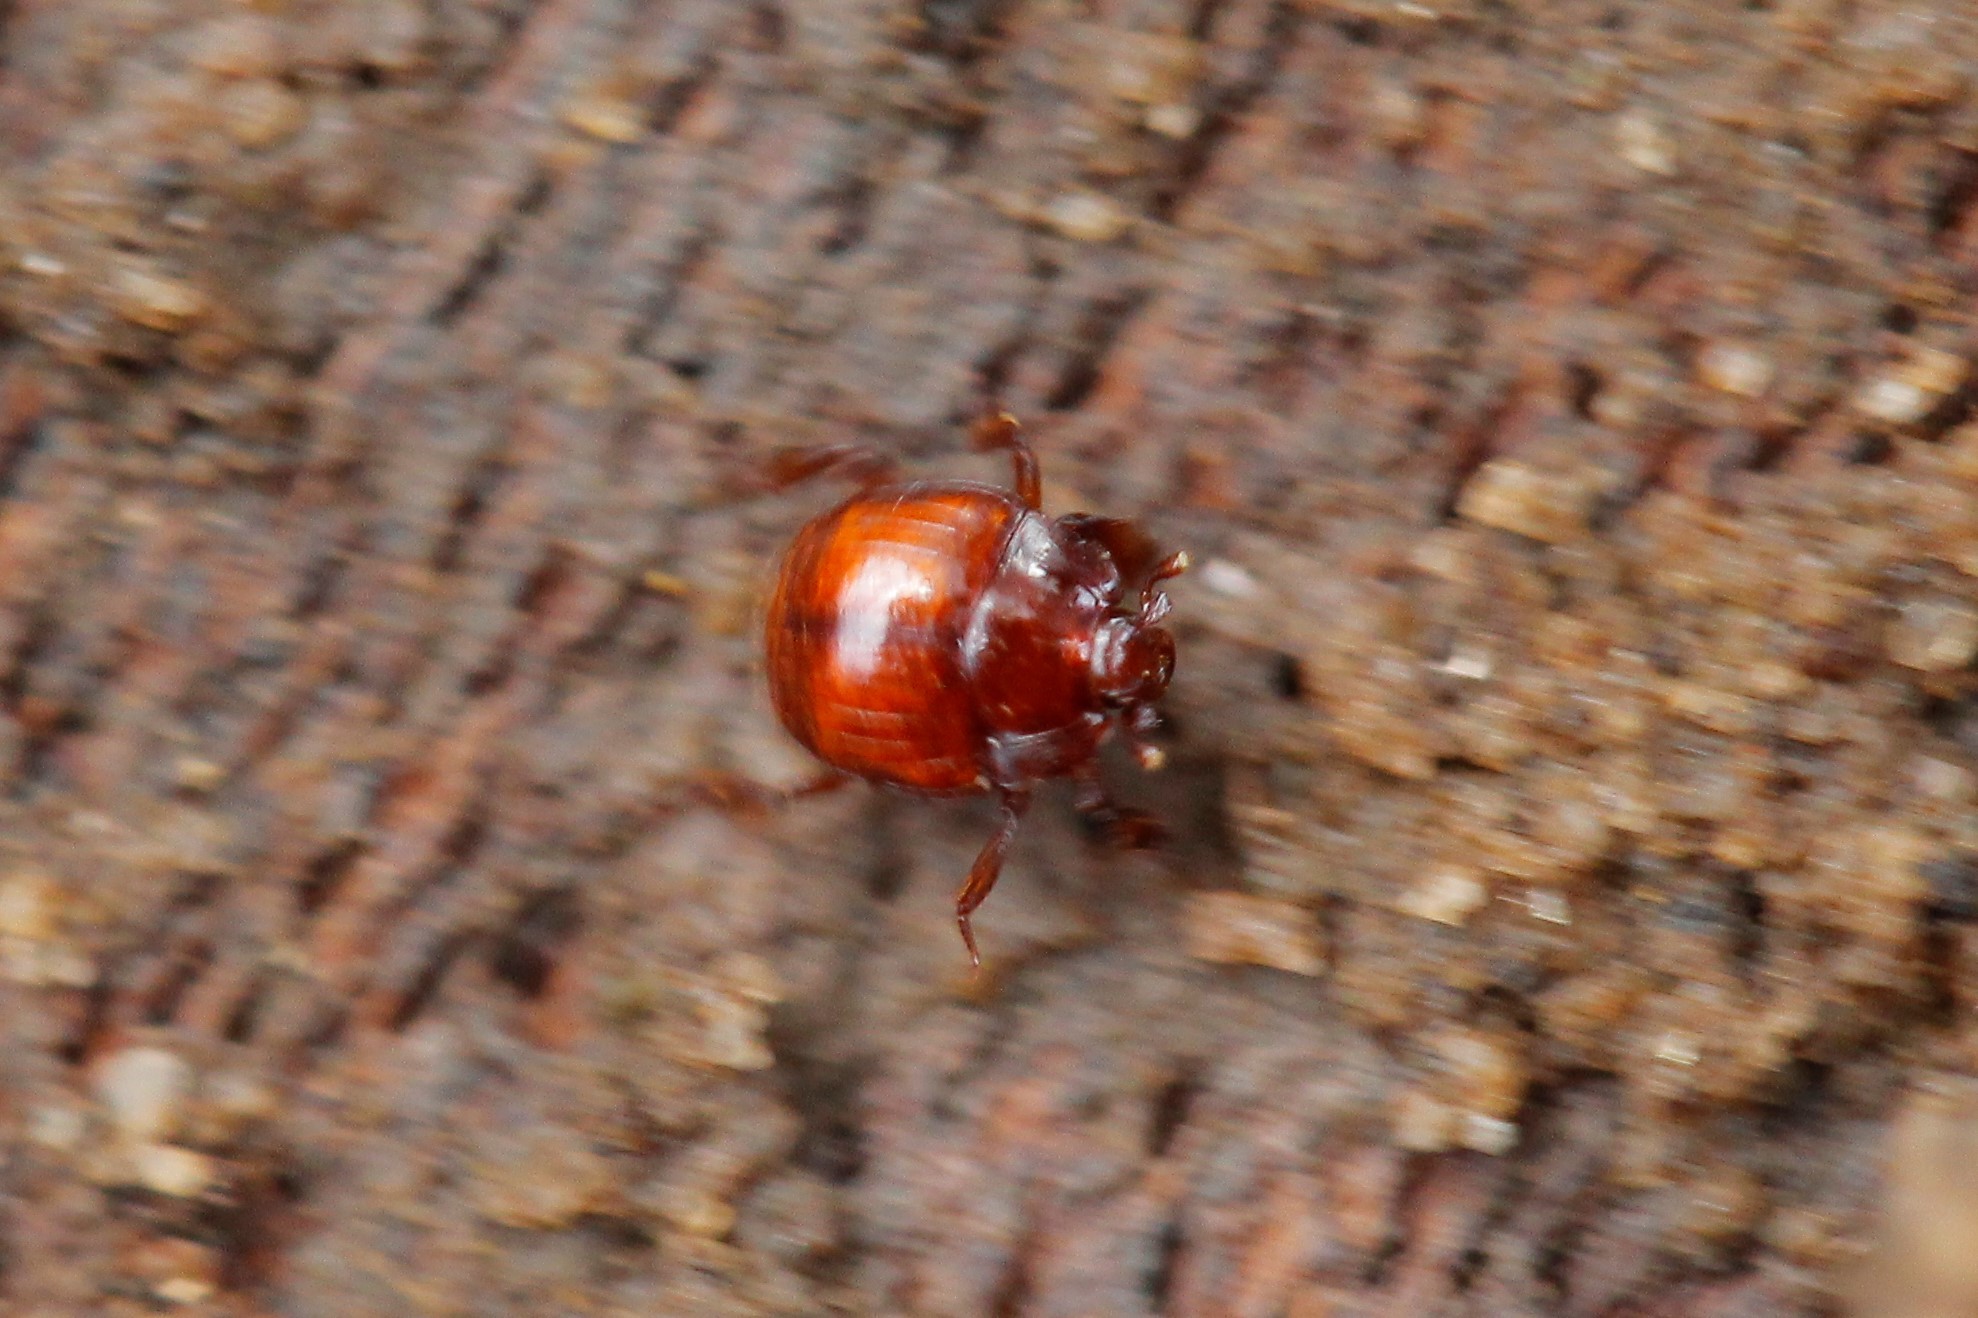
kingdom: Animalia
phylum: Arthropoda
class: Insecta
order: Coleoptera
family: Histeridae
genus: Haeterius
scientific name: Haeterius ferrugineus
